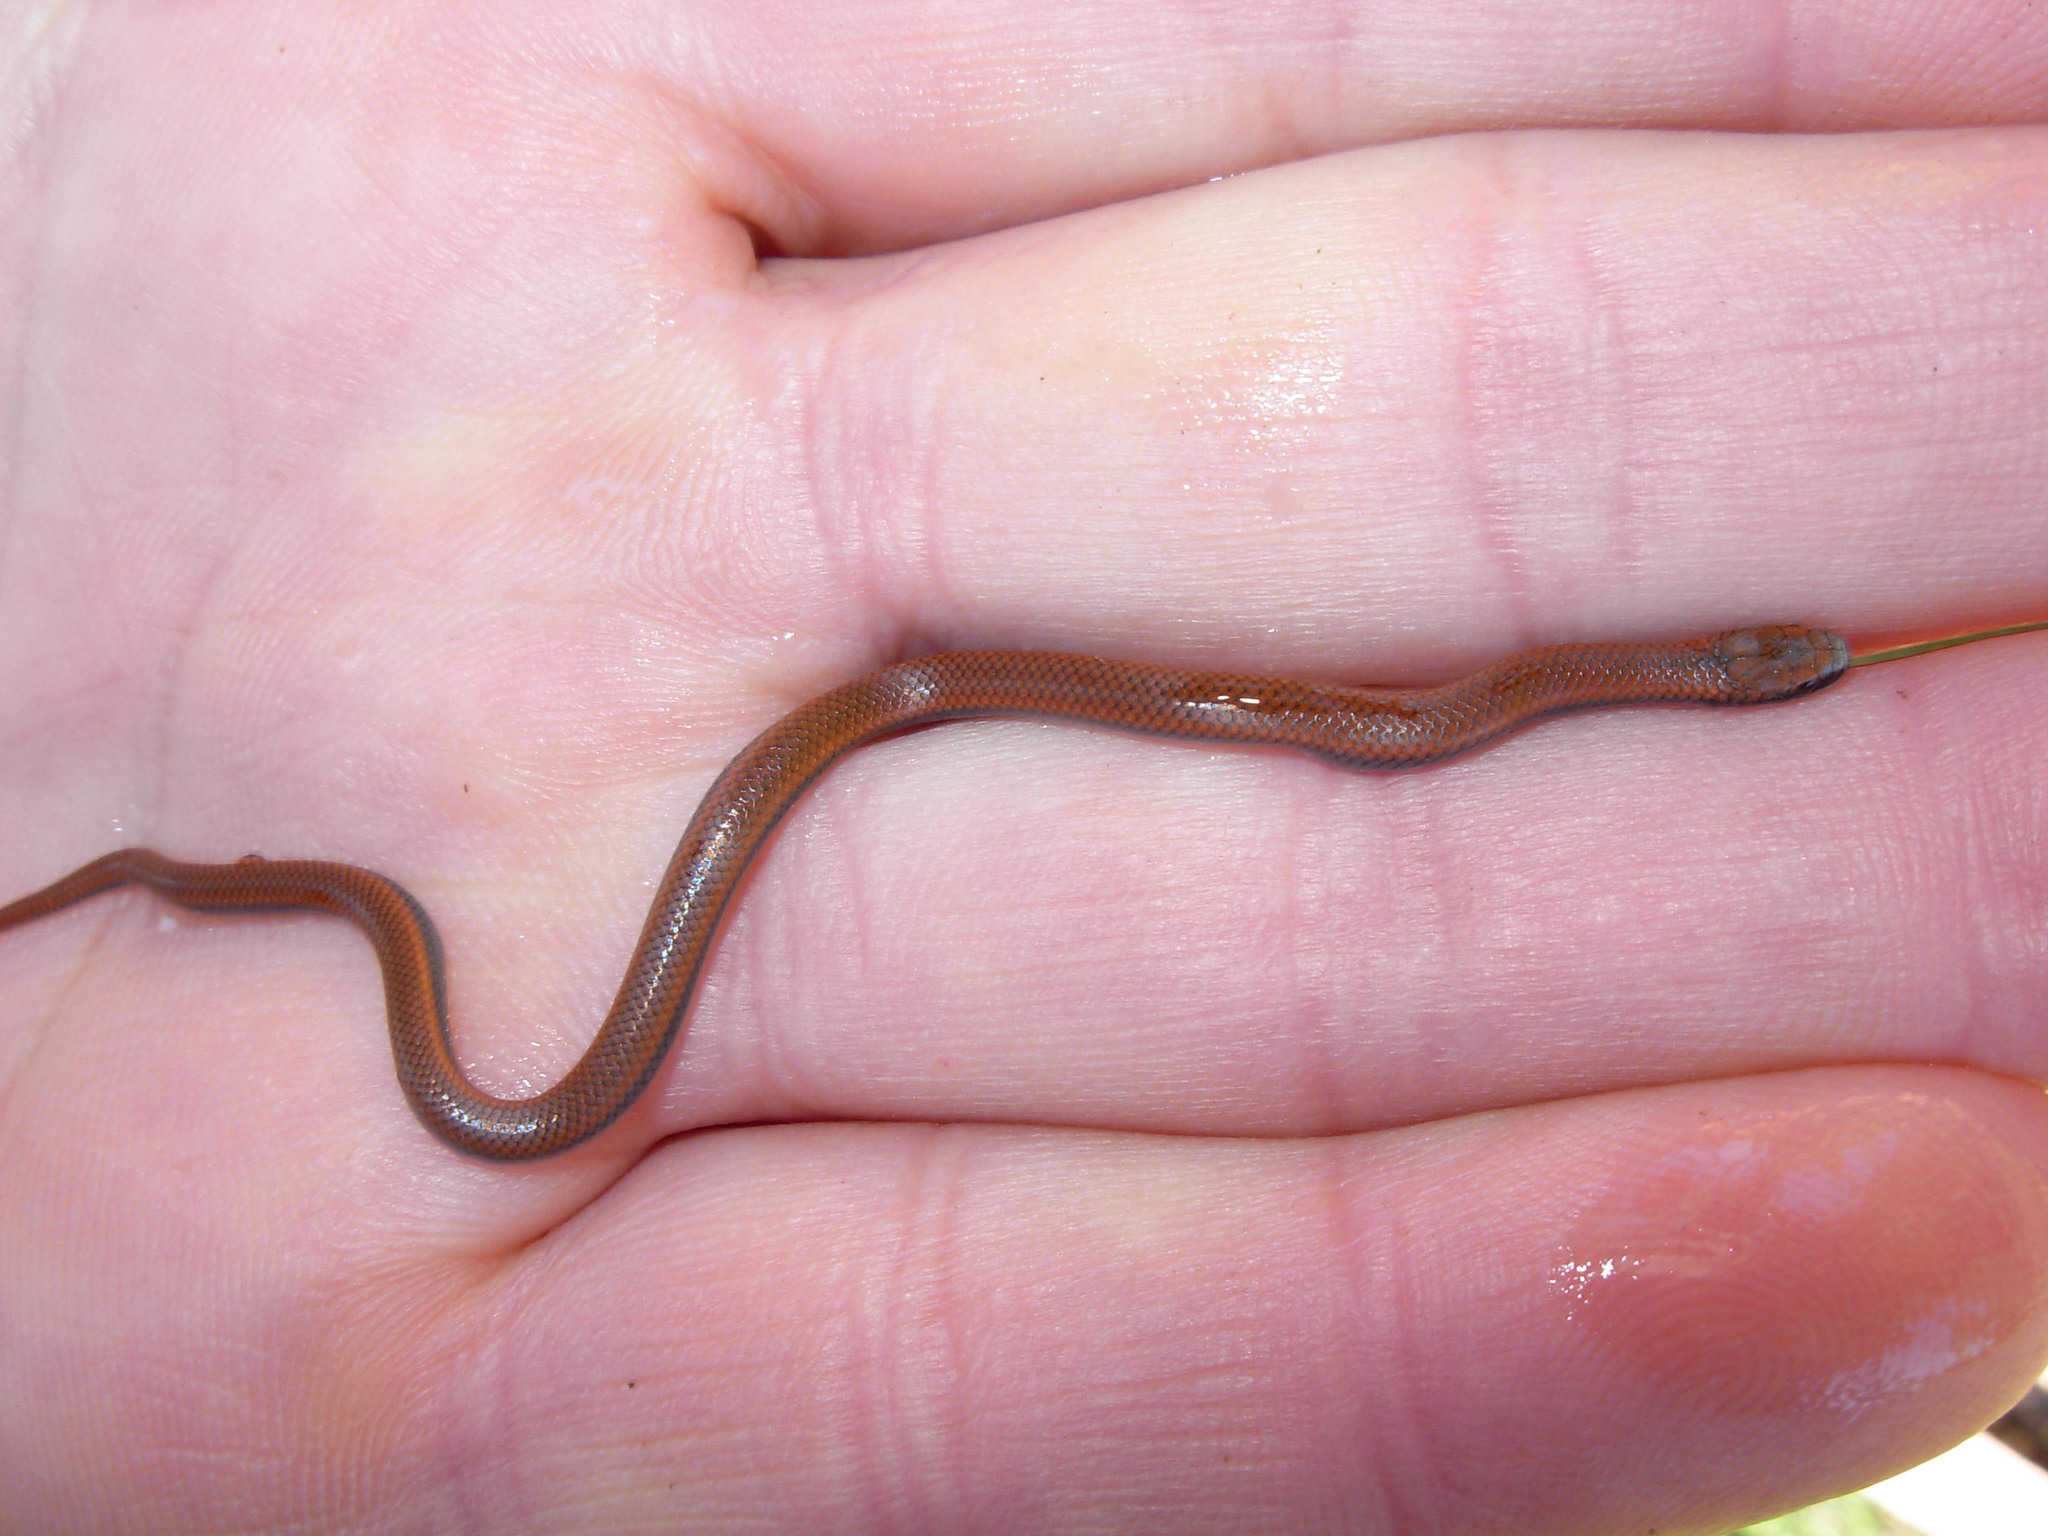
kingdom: Animalia
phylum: Chordata
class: Squamata
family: Colubridae
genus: Contia
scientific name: Contia tenuis
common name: Sharptail snake
